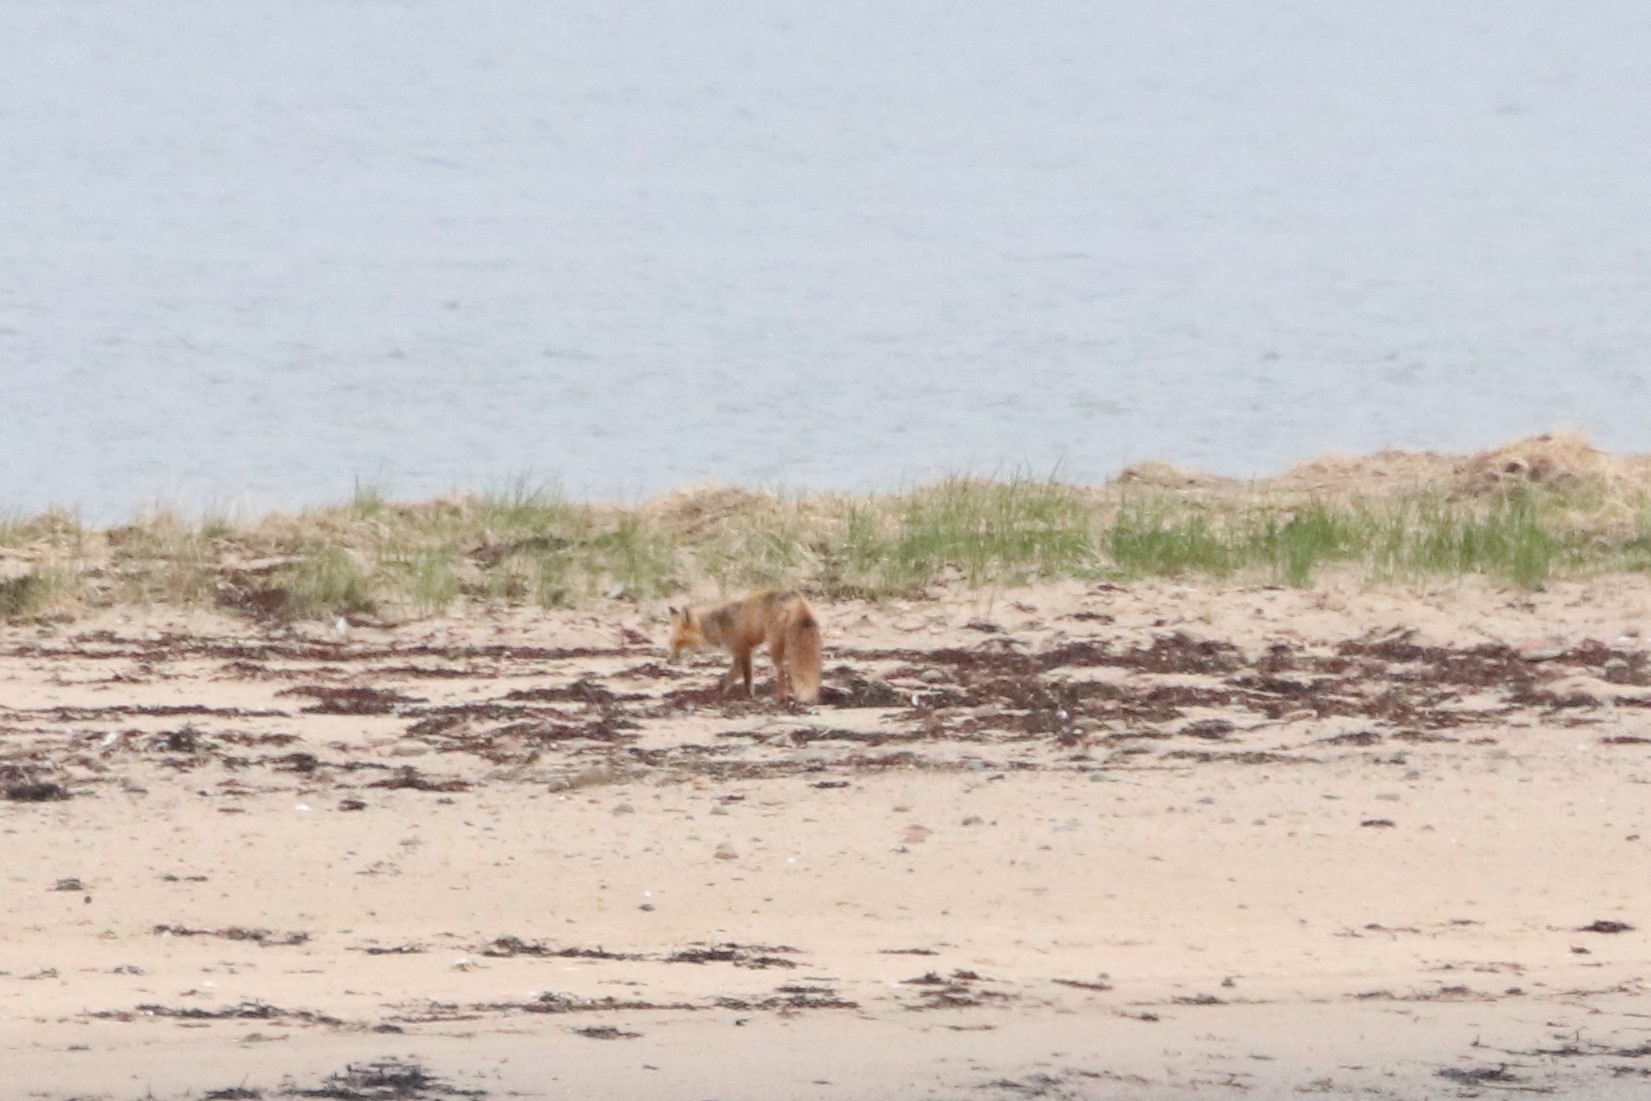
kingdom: Animalia
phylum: Chordata
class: Mammalia
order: Carnivora
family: Canidae
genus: Vulpes
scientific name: Vulpes vulpes
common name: Red fox
